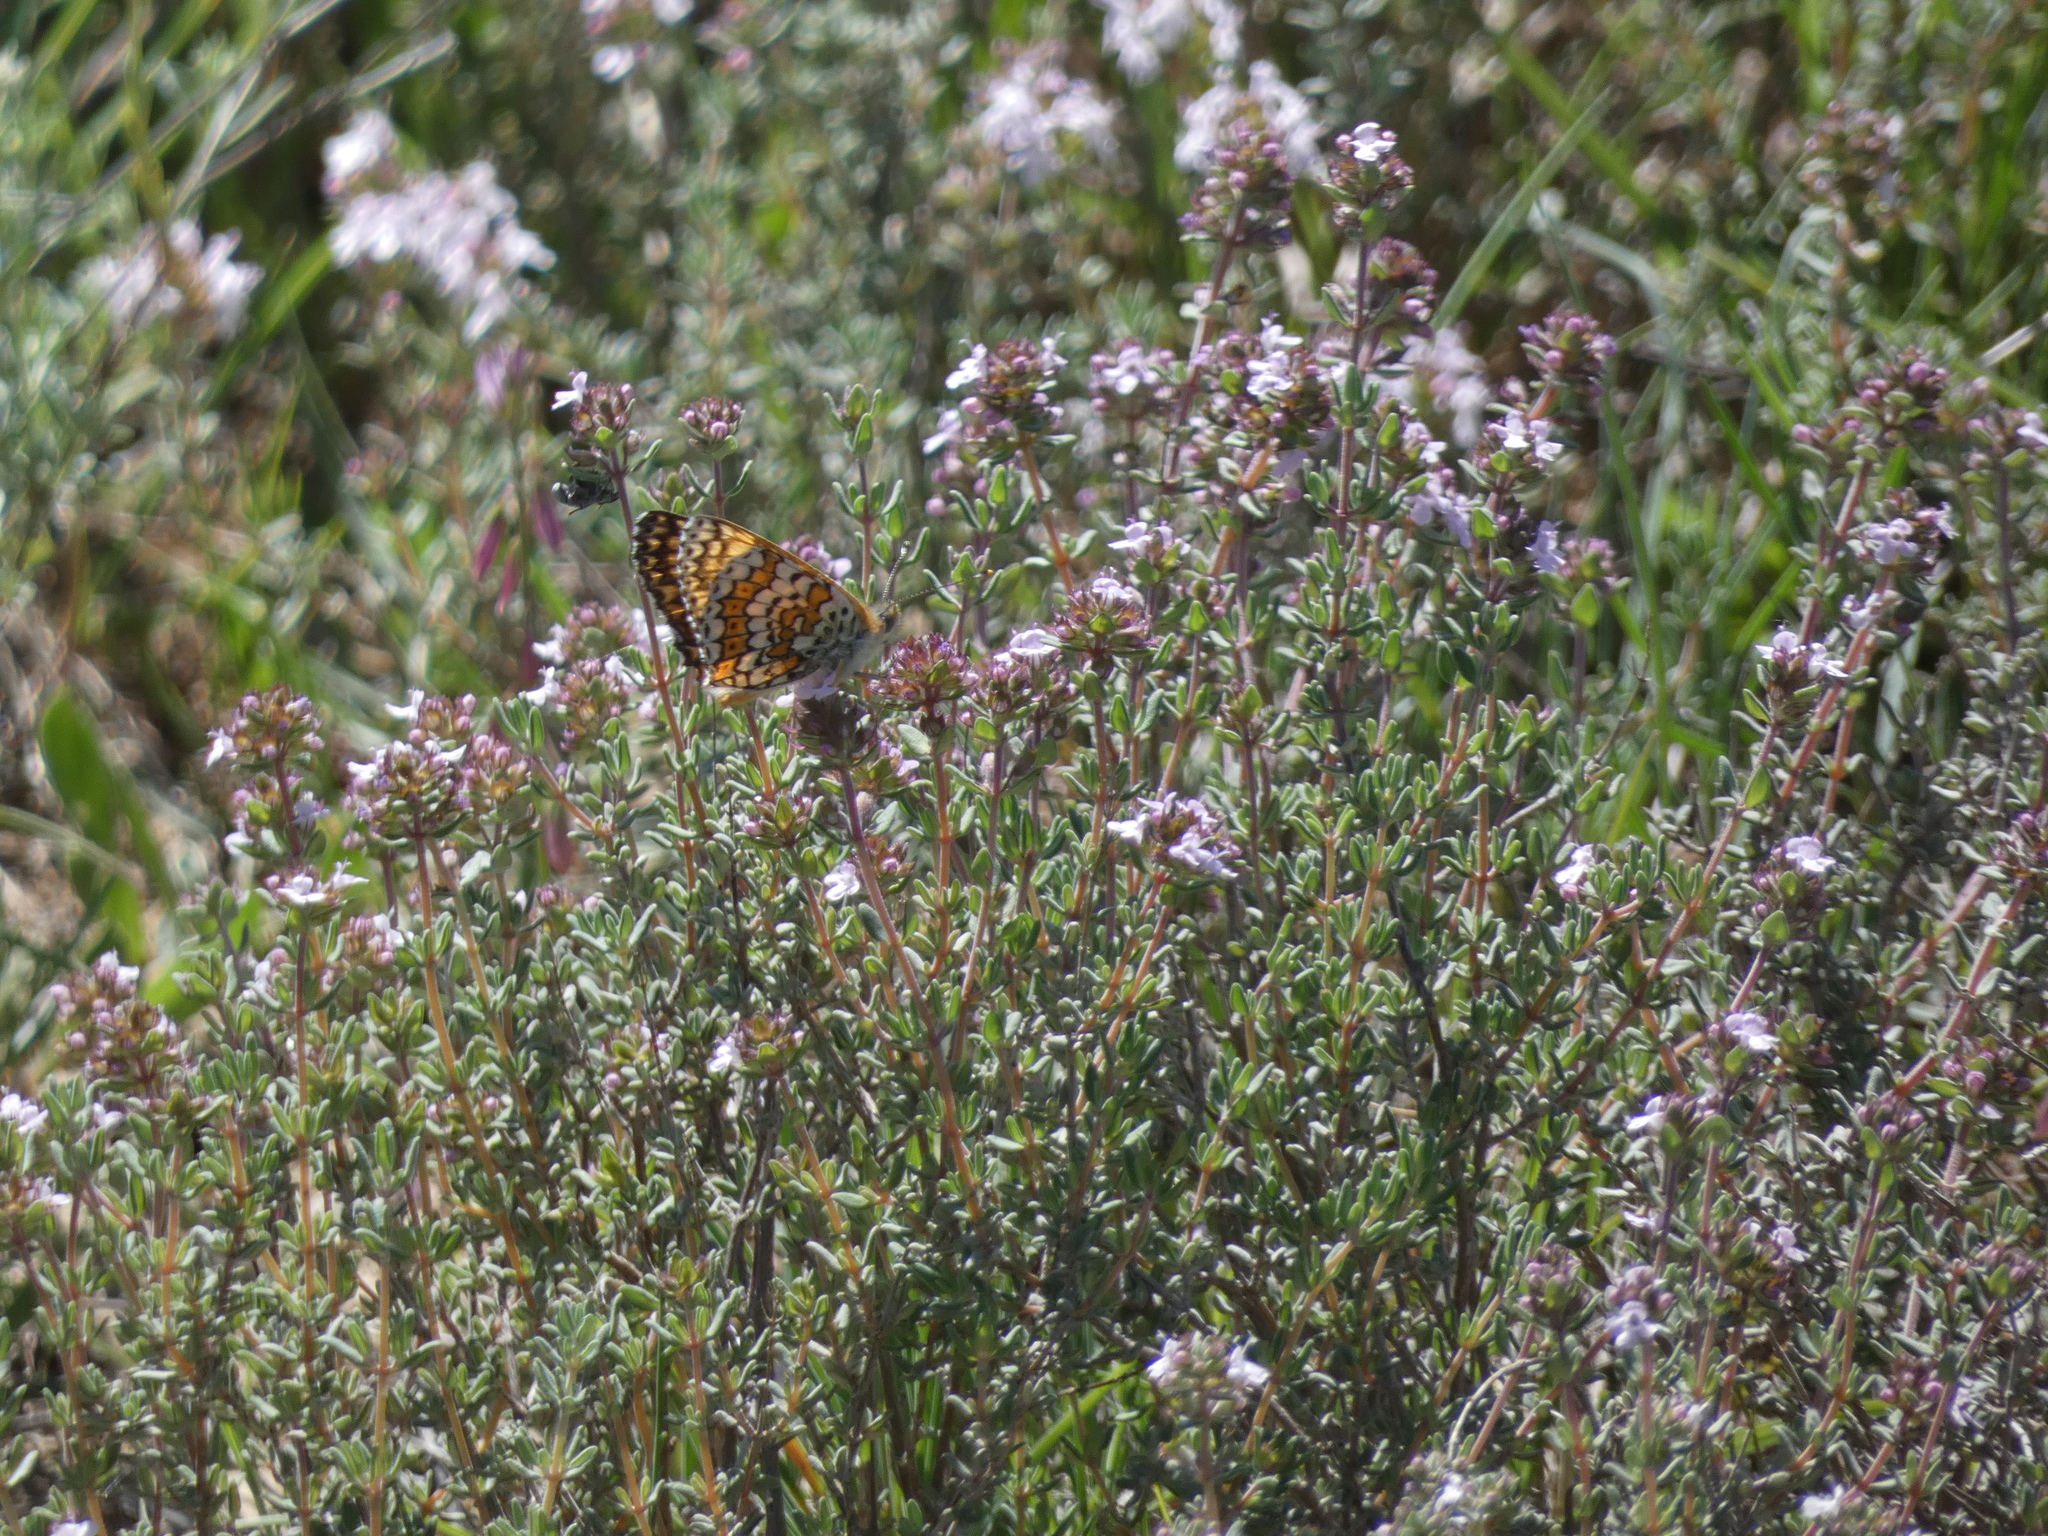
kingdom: Animalia
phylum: Arthropoda
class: Insecta
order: Lepidoptera
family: Nymphalidae
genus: Melitaea
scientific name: Melitaea cinxia
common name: Glanville fritillary
